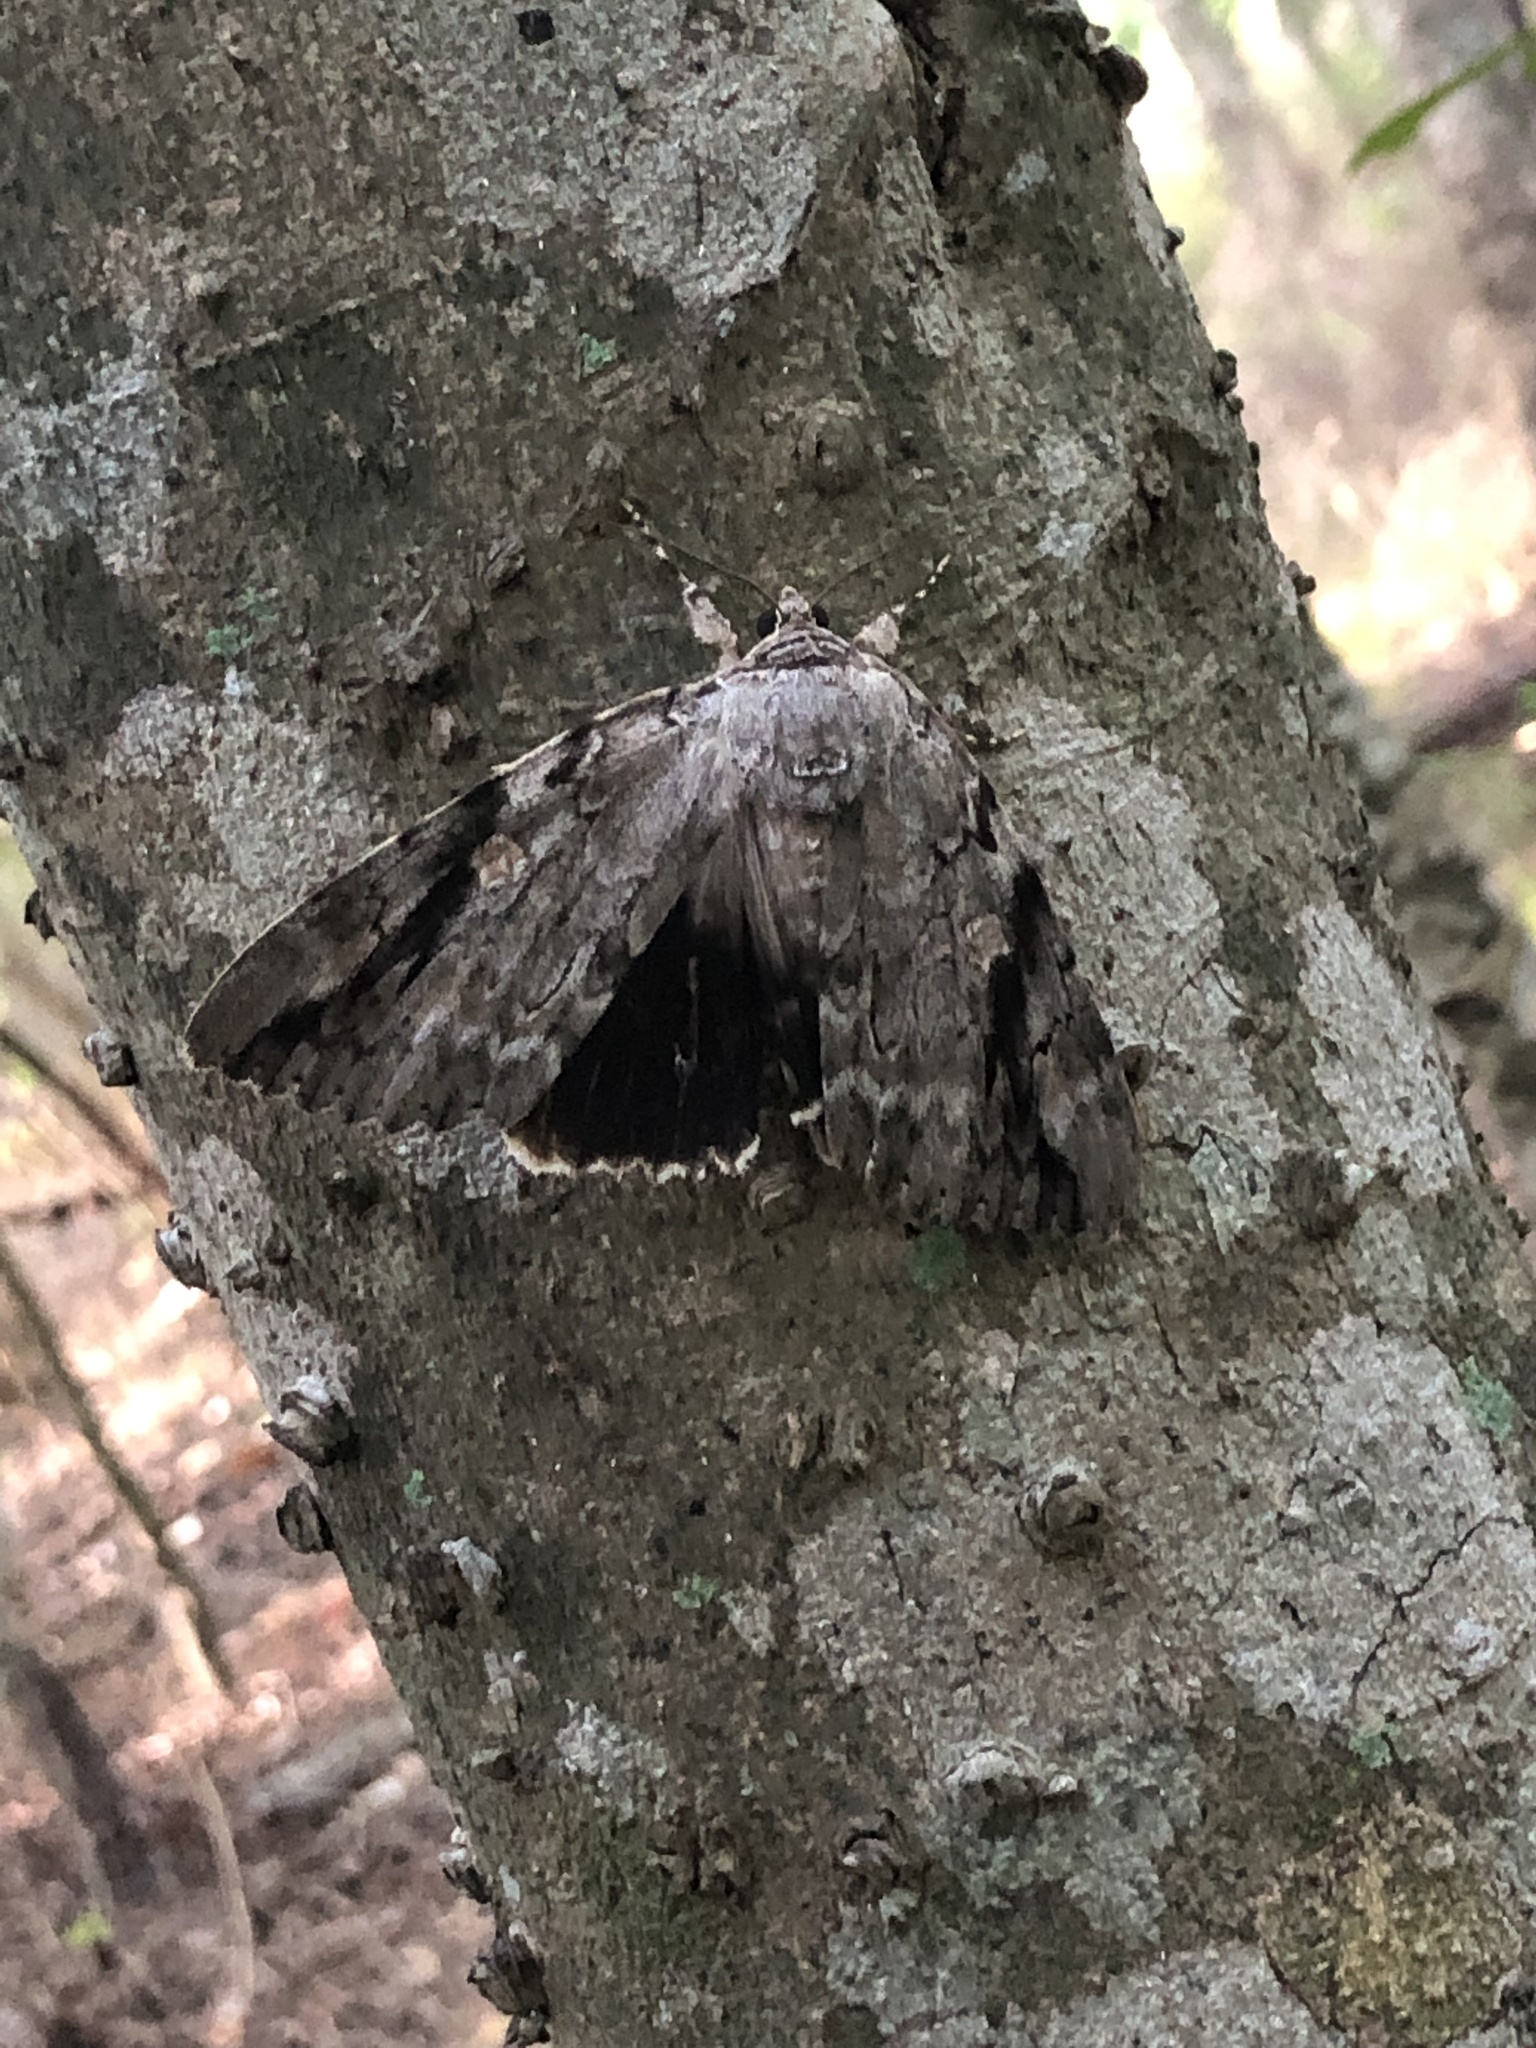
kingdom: Animalia
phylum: Arthropoda
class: Insecta
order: Lepidoptera
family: Erebidae
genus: Catocala
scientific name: Catocala maestosa
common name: Sad underwing
